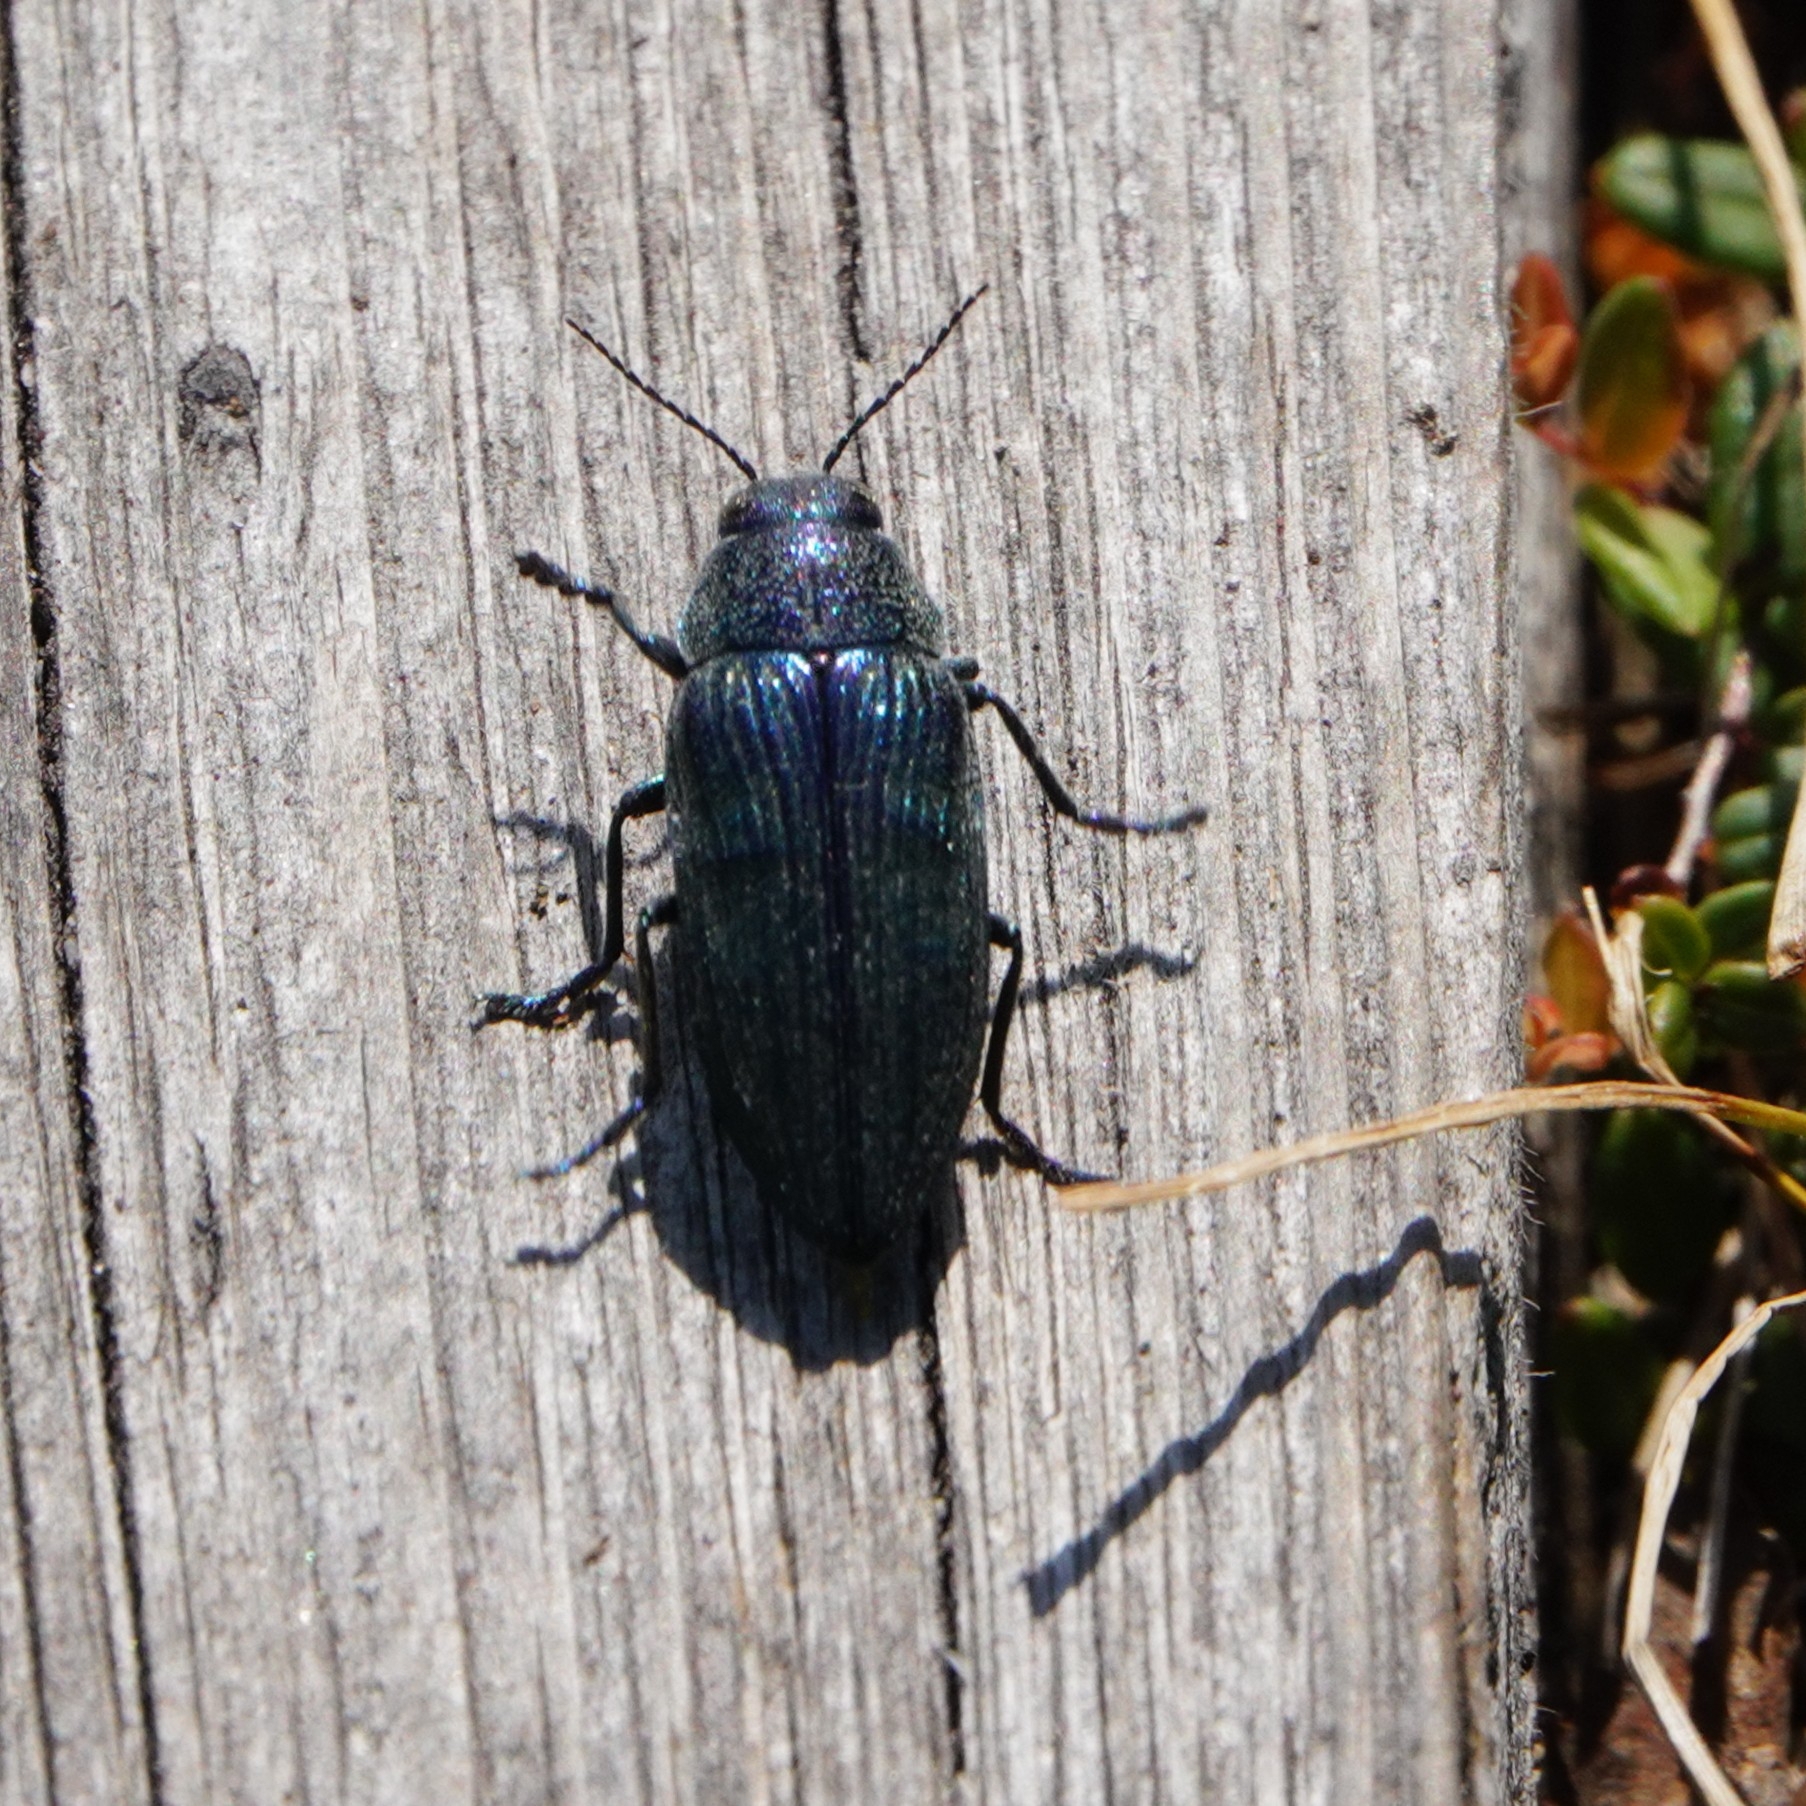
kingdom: Animalia
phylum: Arthropoda
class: Insecta
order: Coleoptera
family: Buprestidae
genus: Buprestis
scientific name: Buprestis rustica
